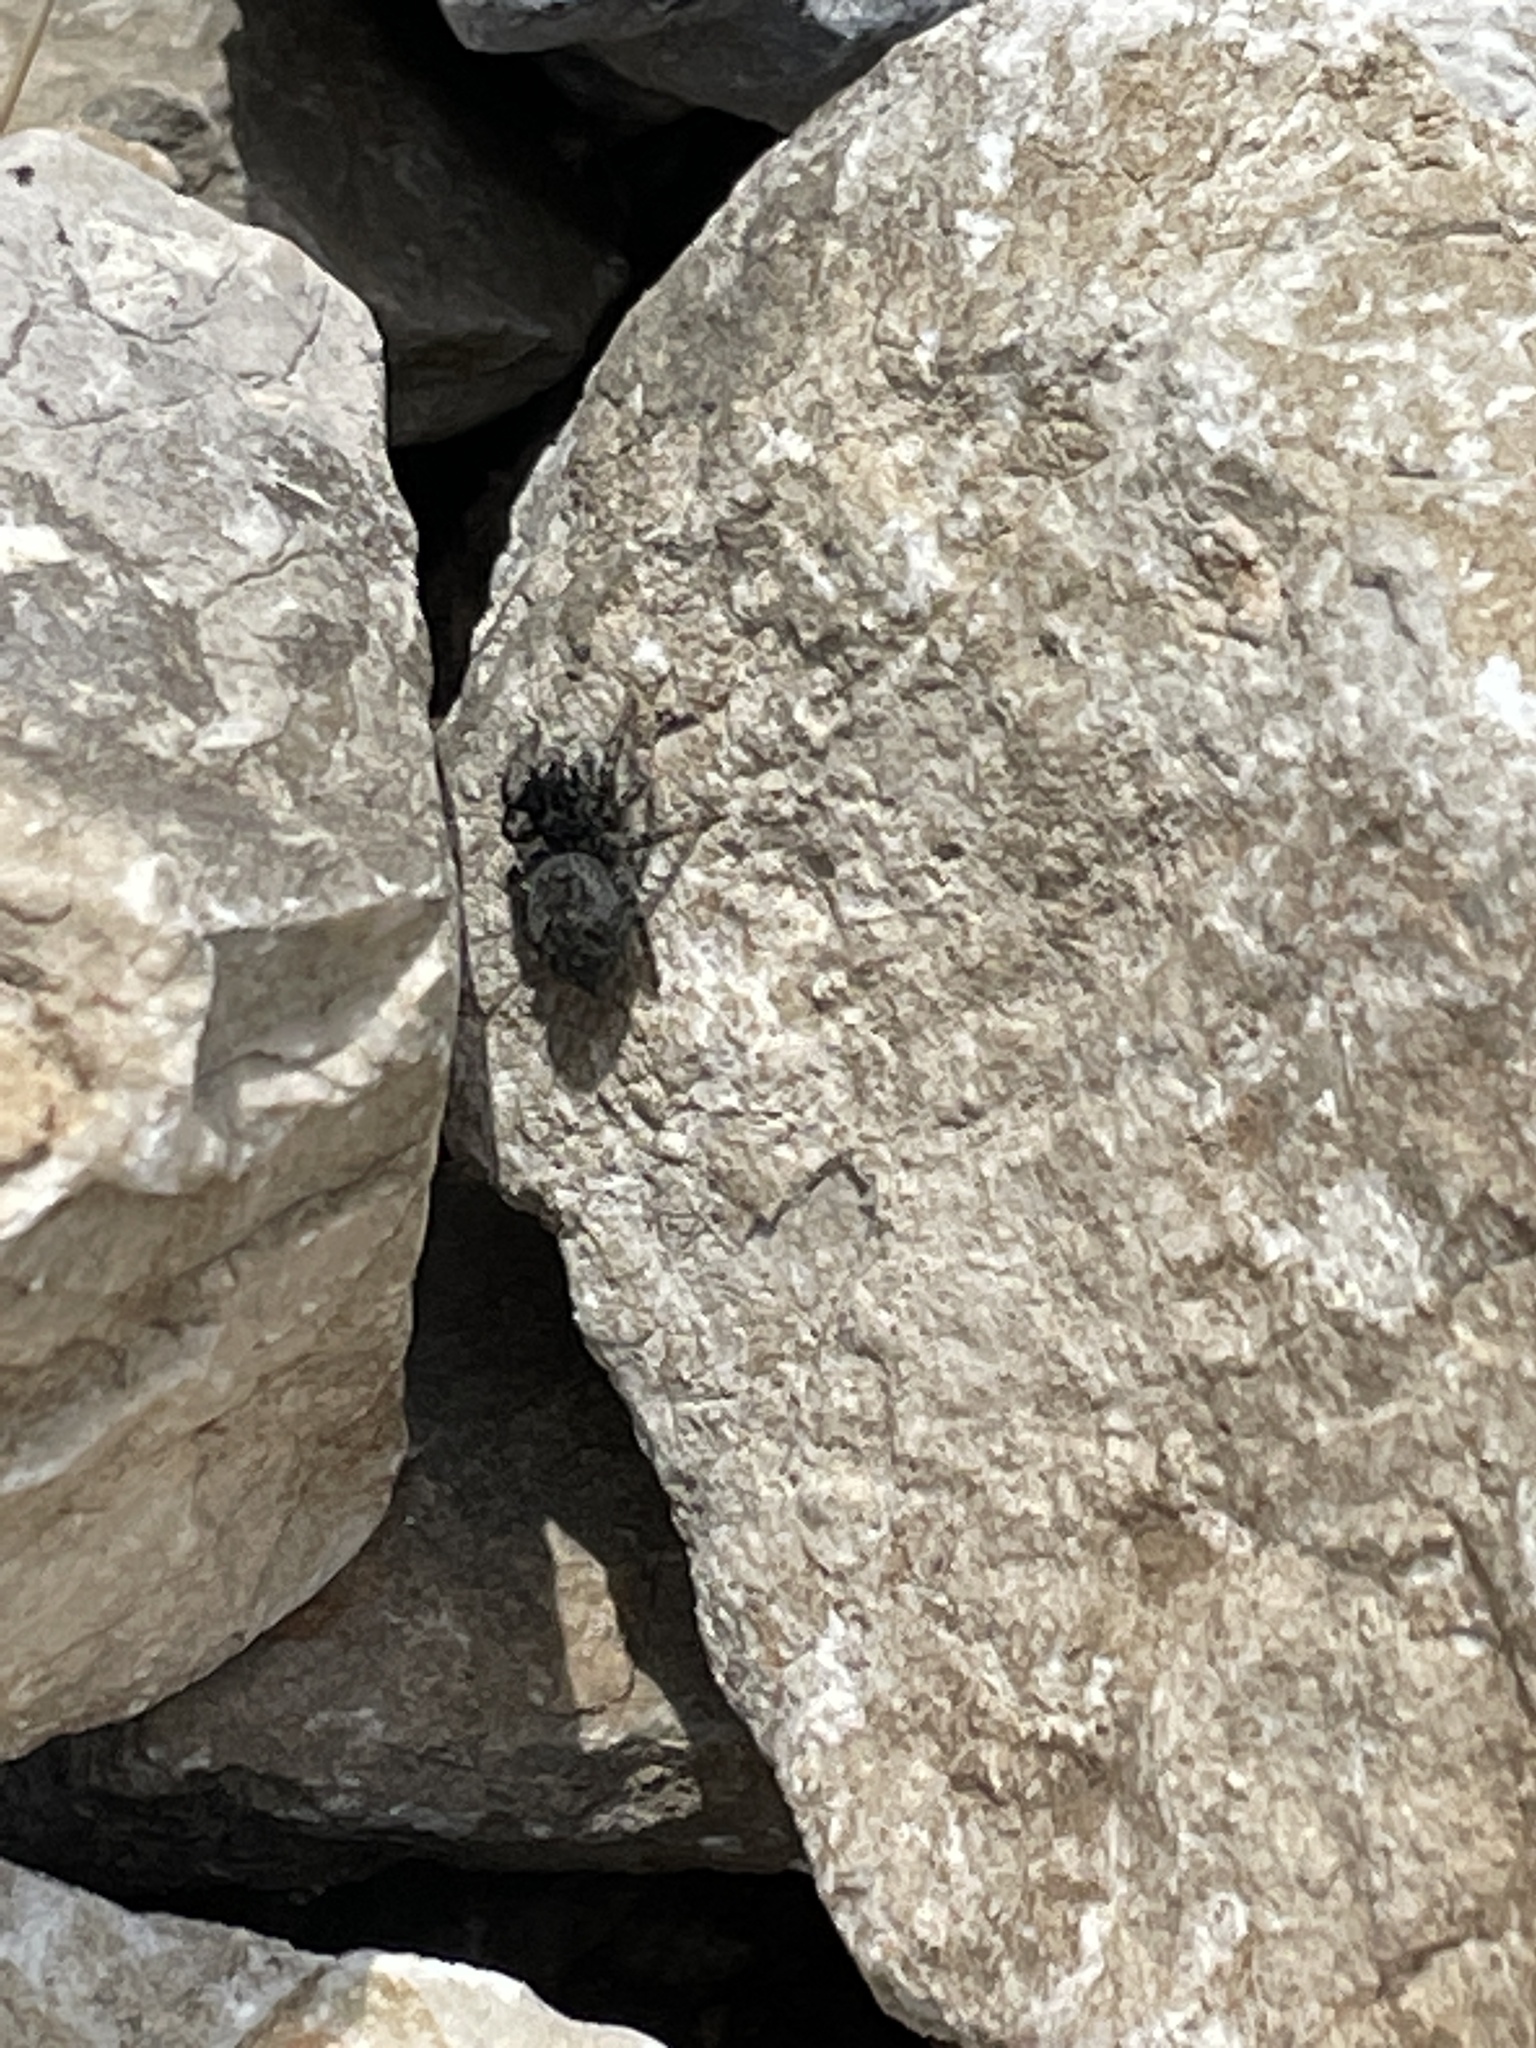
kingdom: Animalia
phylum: Arthropoda
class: Arachnida
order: Araneae
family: Salticidae
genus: Philaeus
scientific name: Philaeus chrysops
